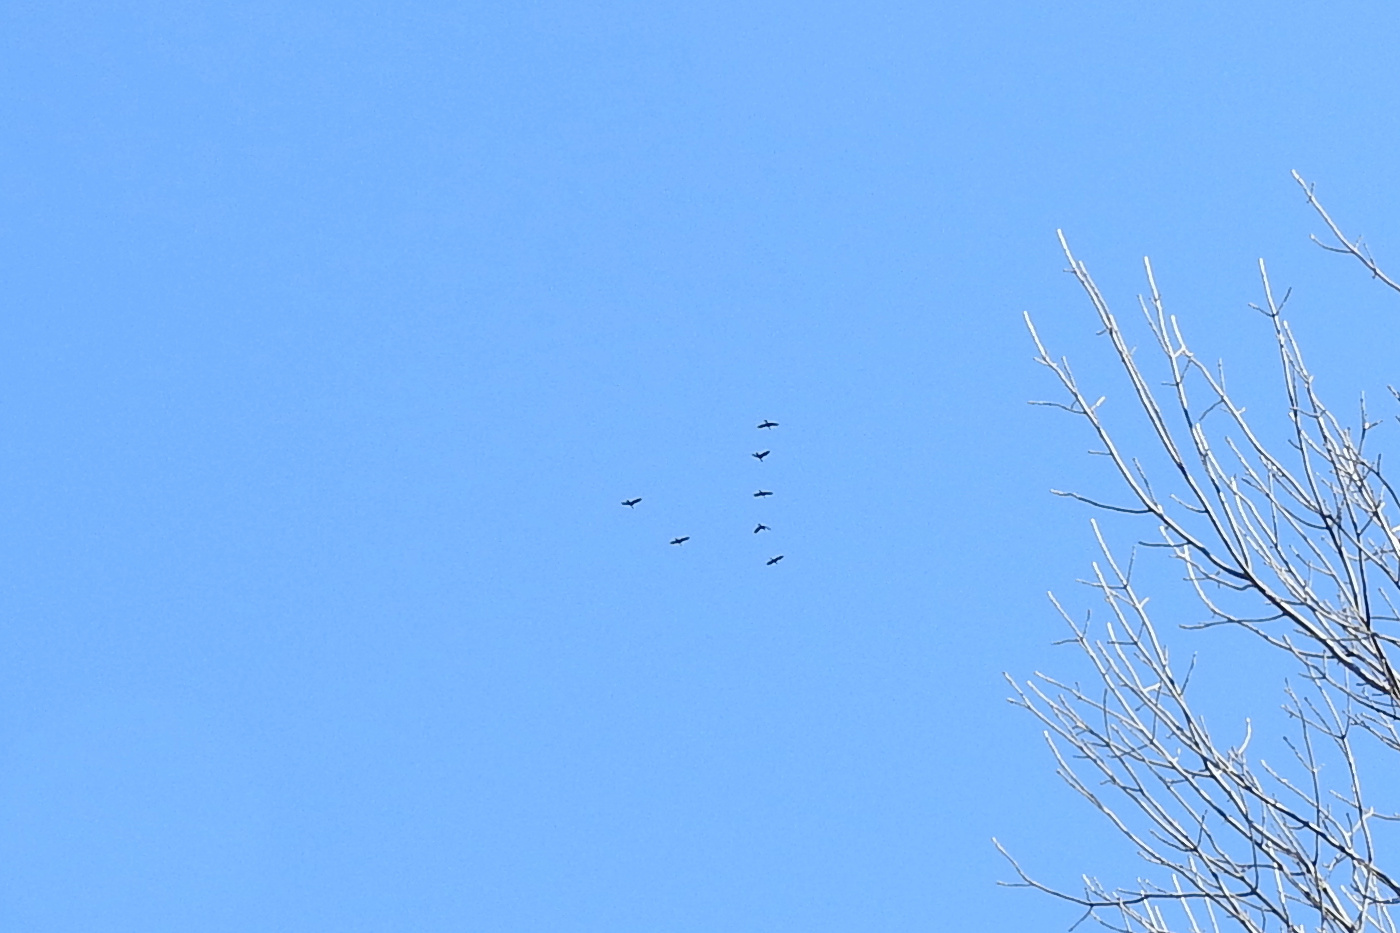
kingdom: Animalia
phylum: Chordata
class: Aves
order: Suliformes
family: Phalacrocoracidae
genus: Phalacrocorax
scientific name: Phalacrocorax auritus
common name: Double-crested cormorant
